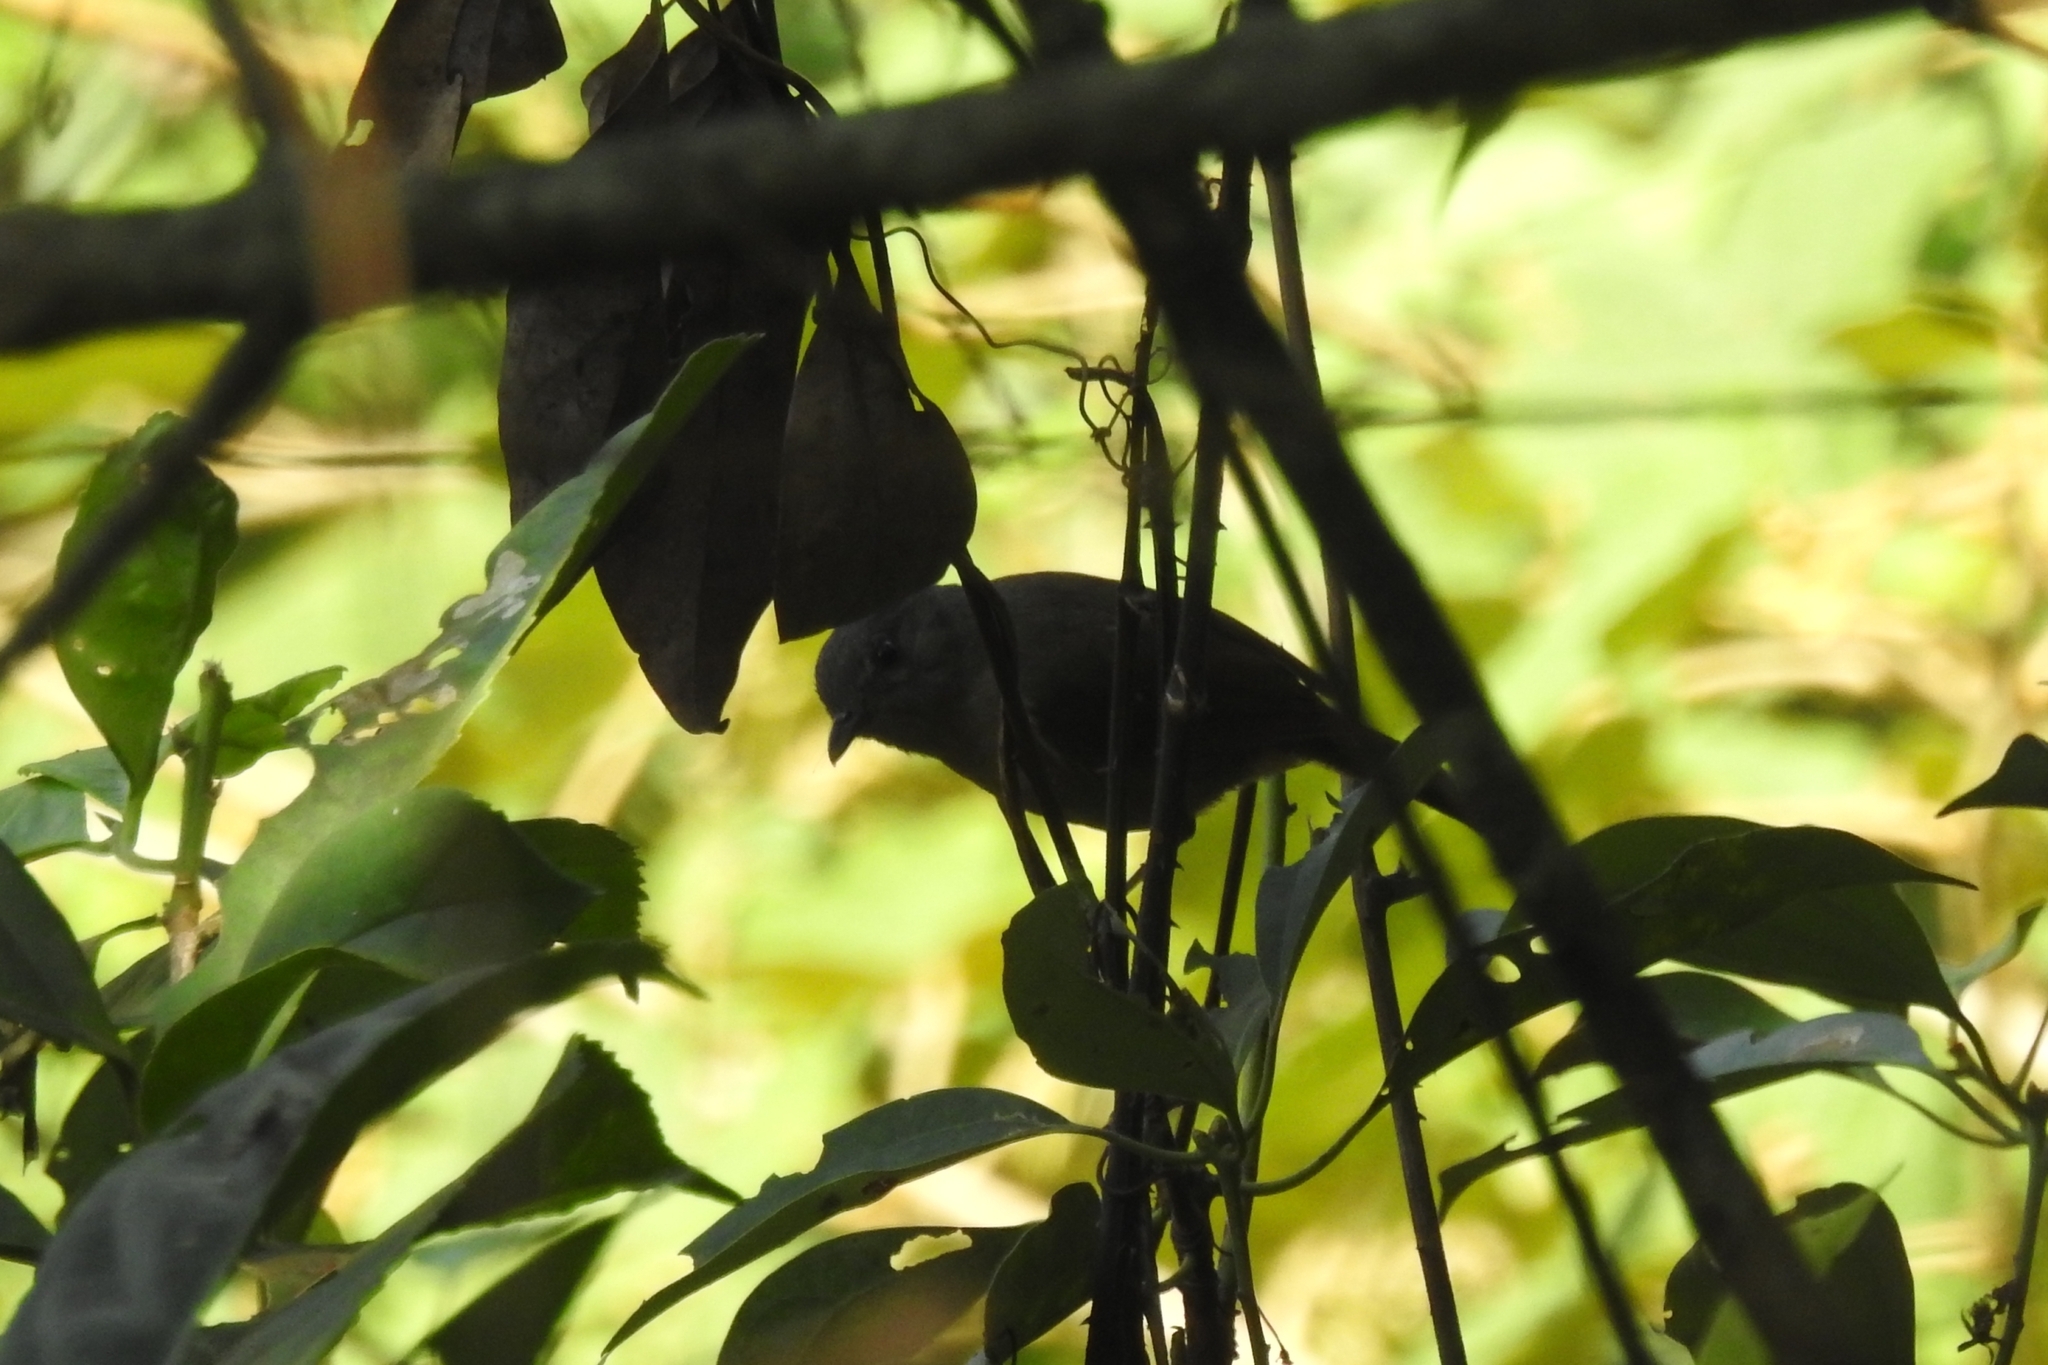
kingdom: Animalia
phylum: Chordata
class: Aves
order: Passeriformes
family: Pellorneidae
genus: Alcippe
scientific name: Alcippe poioicephala
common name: Brown-cheeked fulvetta
